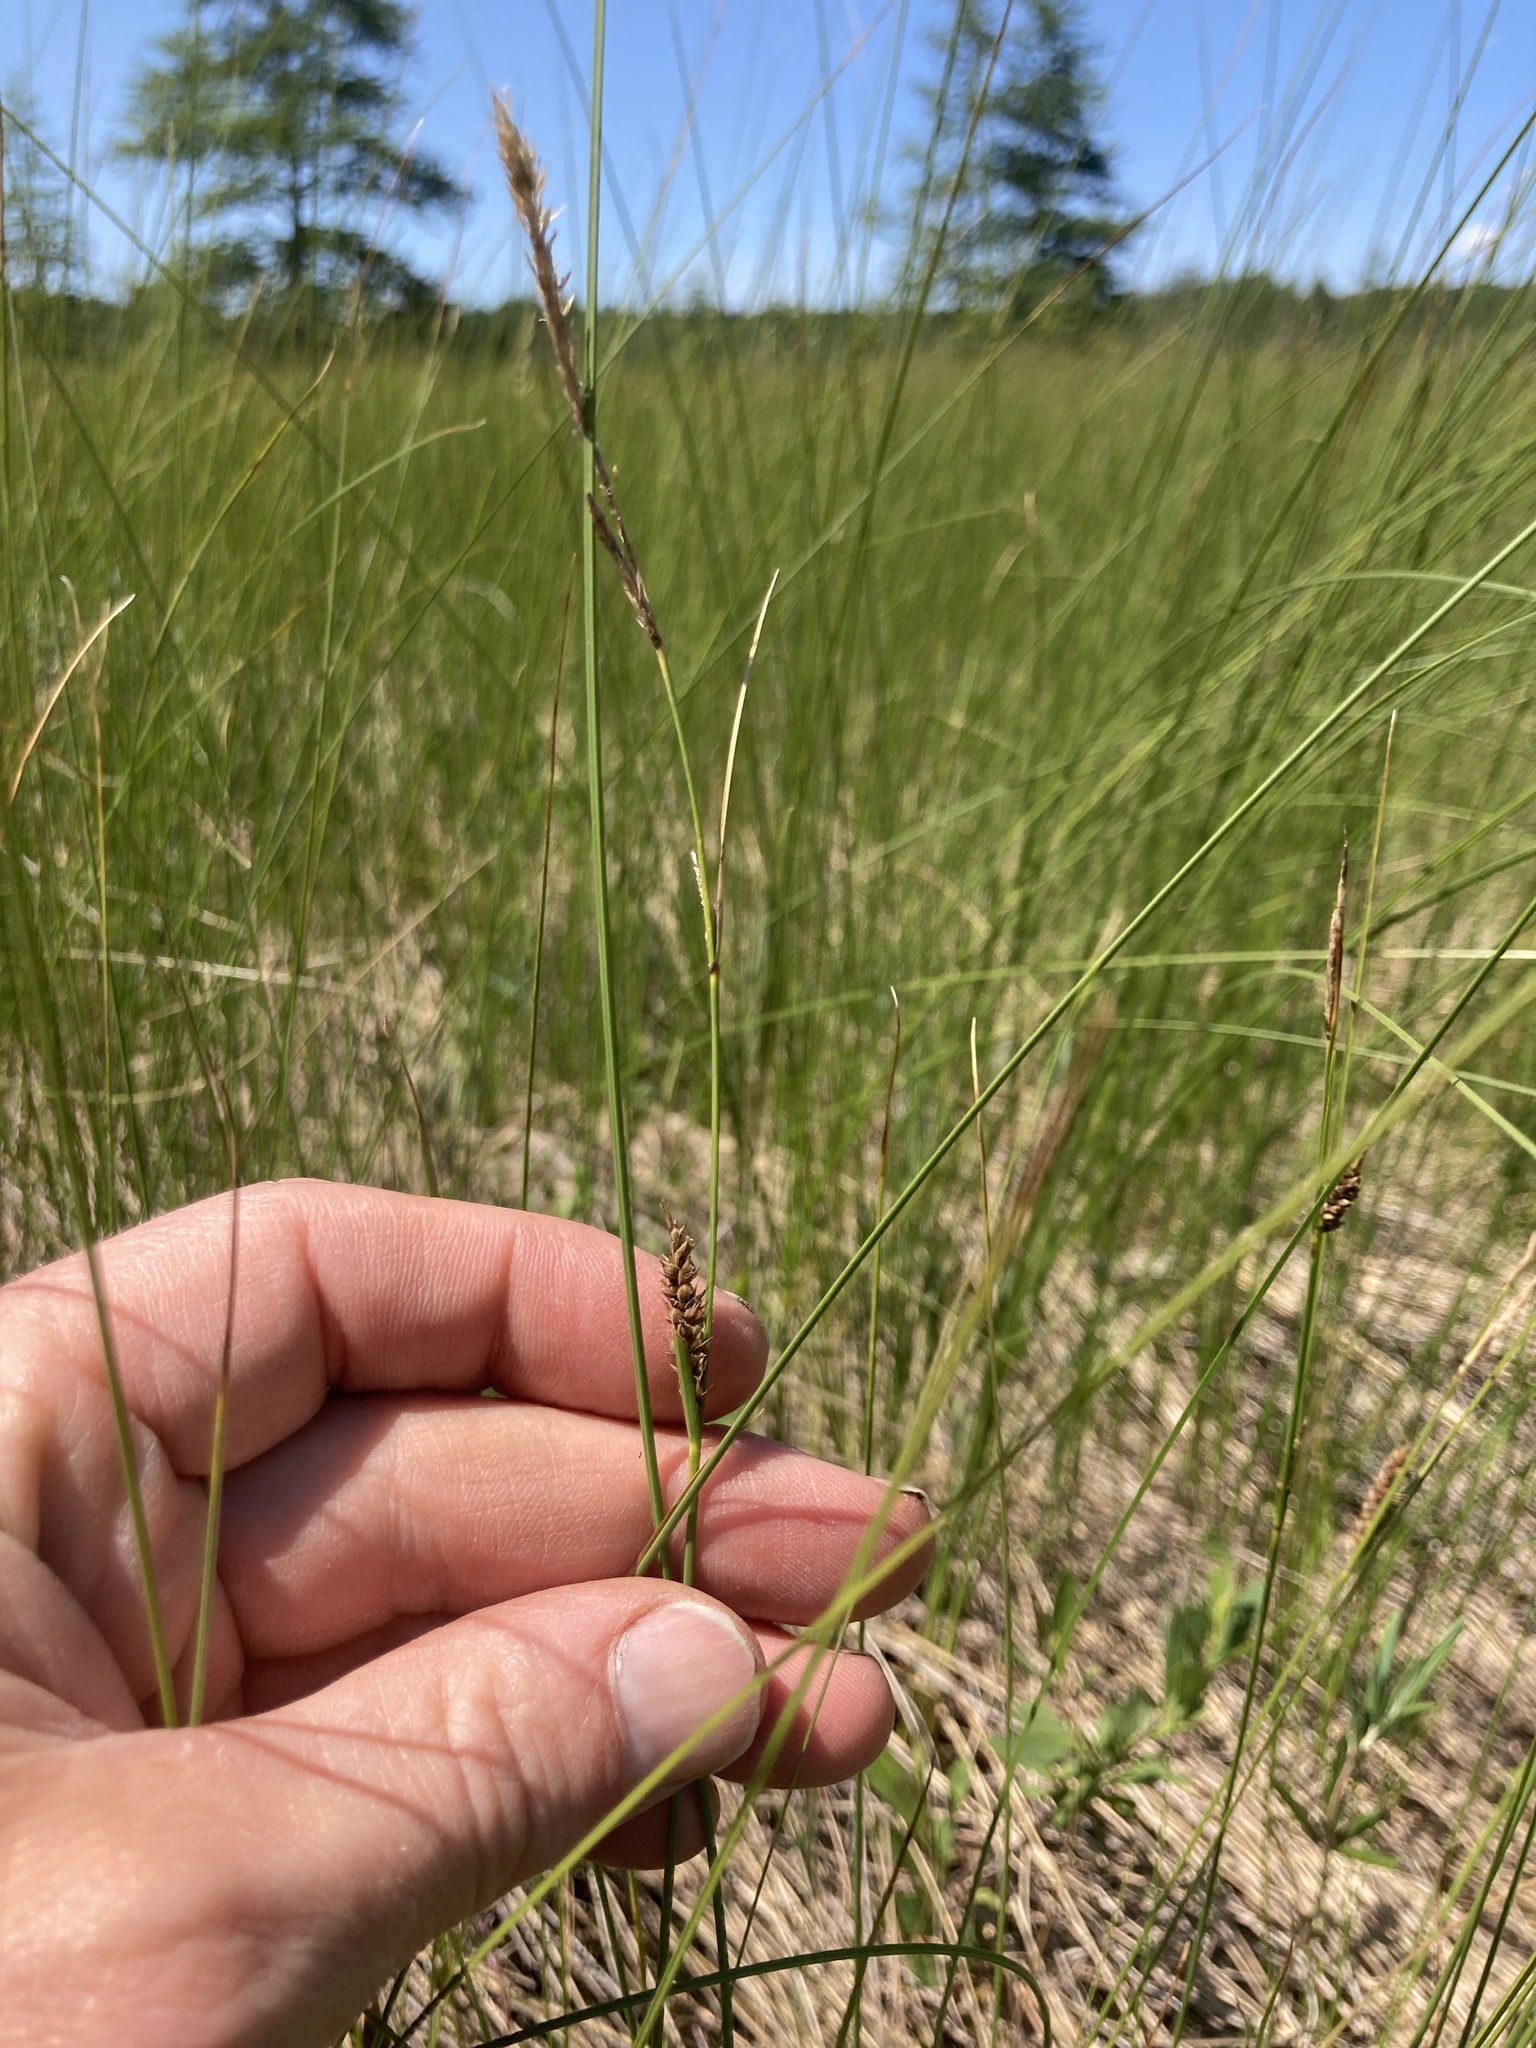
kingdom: Plantae
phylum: Tracheophyta
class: Liliopsida
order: Poales
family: Cyperaceae
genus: Carex
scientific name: Carex lasiocarpa
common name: Slender sedge
